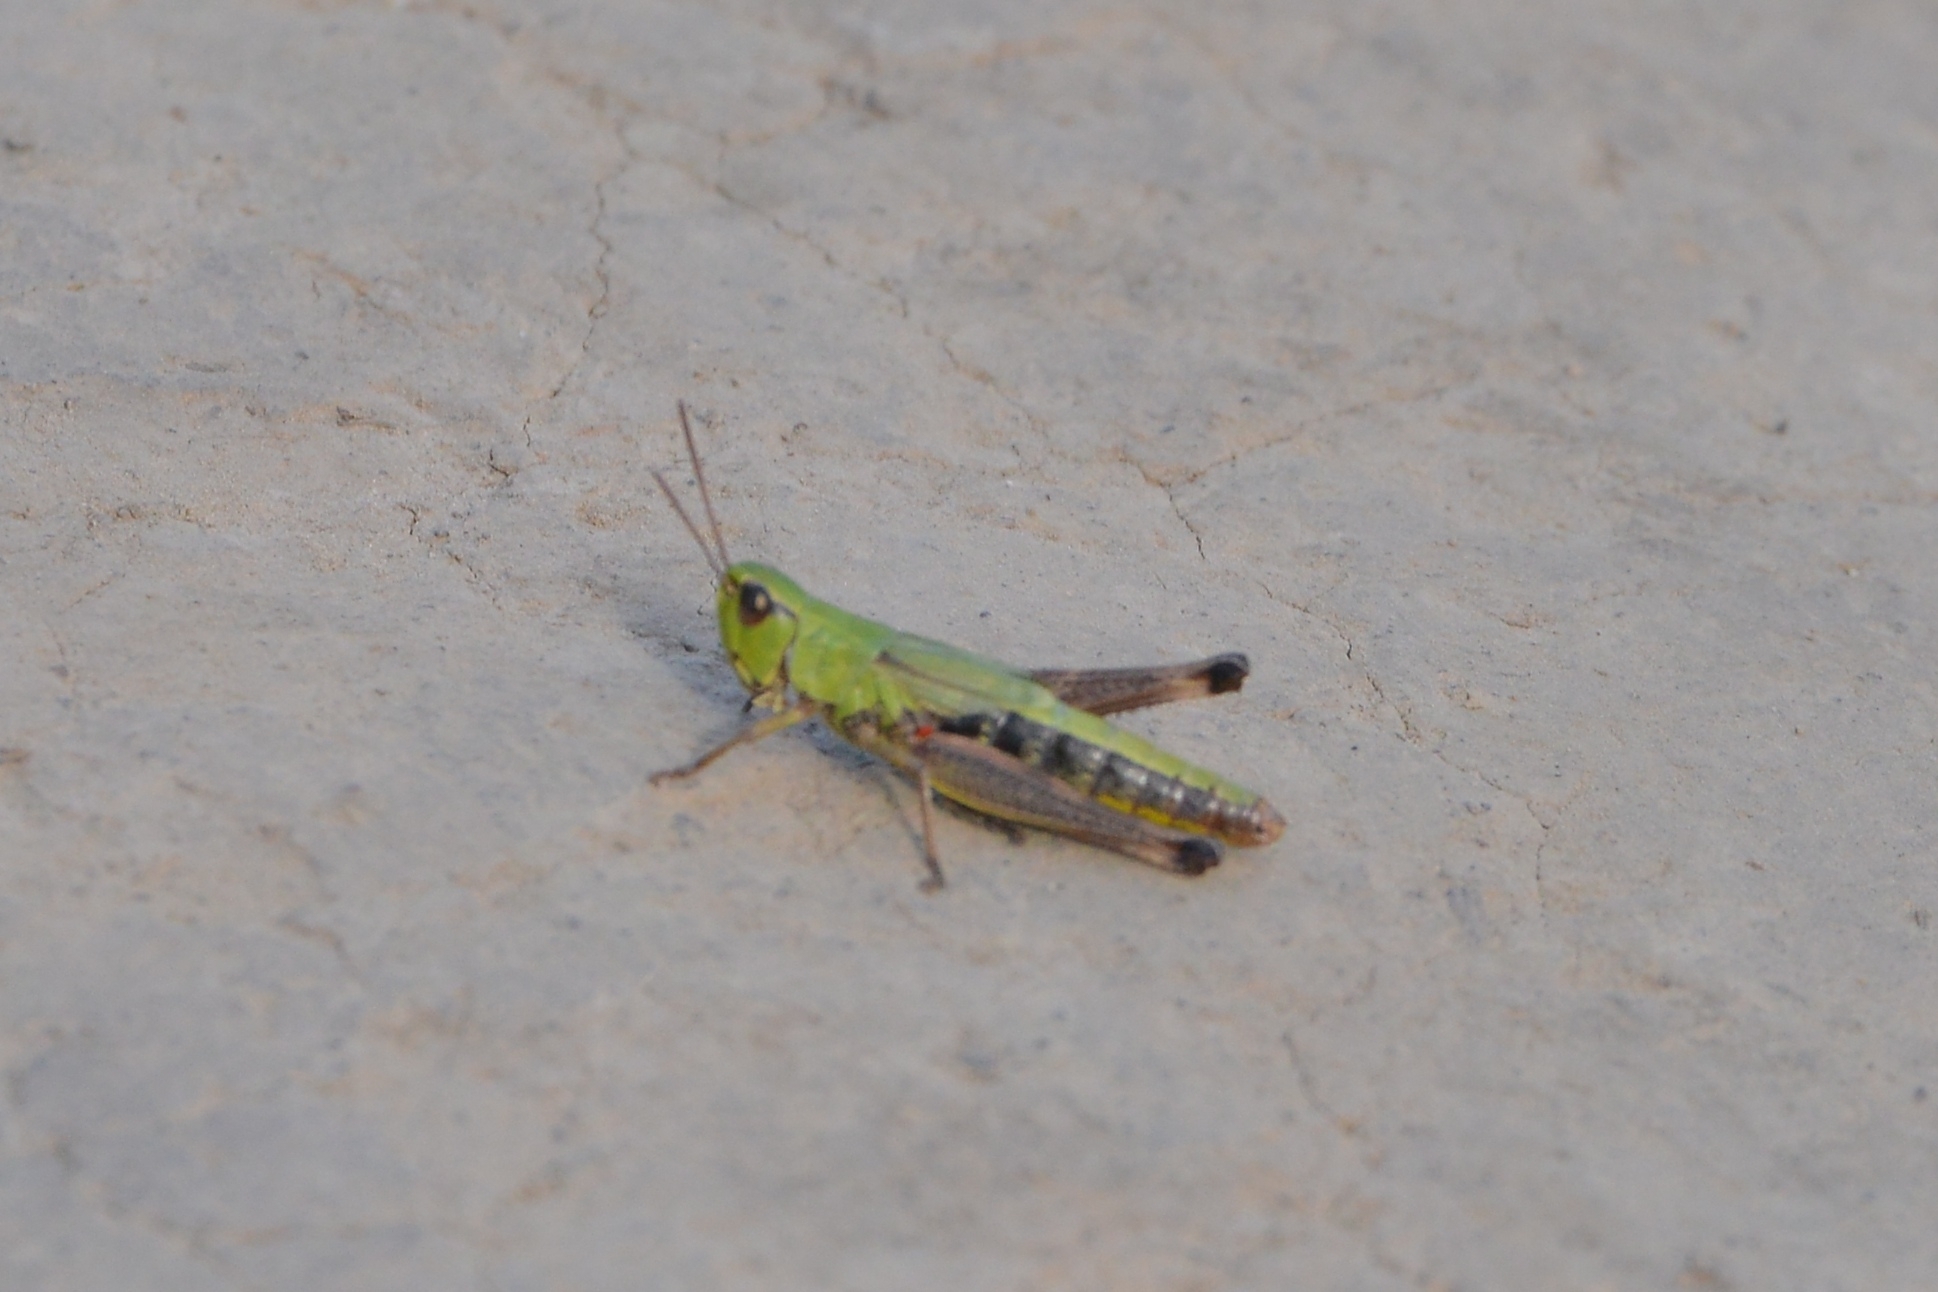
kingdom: Animalia
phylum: Arthropoda
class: Insecta
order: Orthoptera
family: Acrididae
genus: Pseudochorthippus
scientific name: Pseudochorthippus parallelus
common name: Meadow grasshopper
